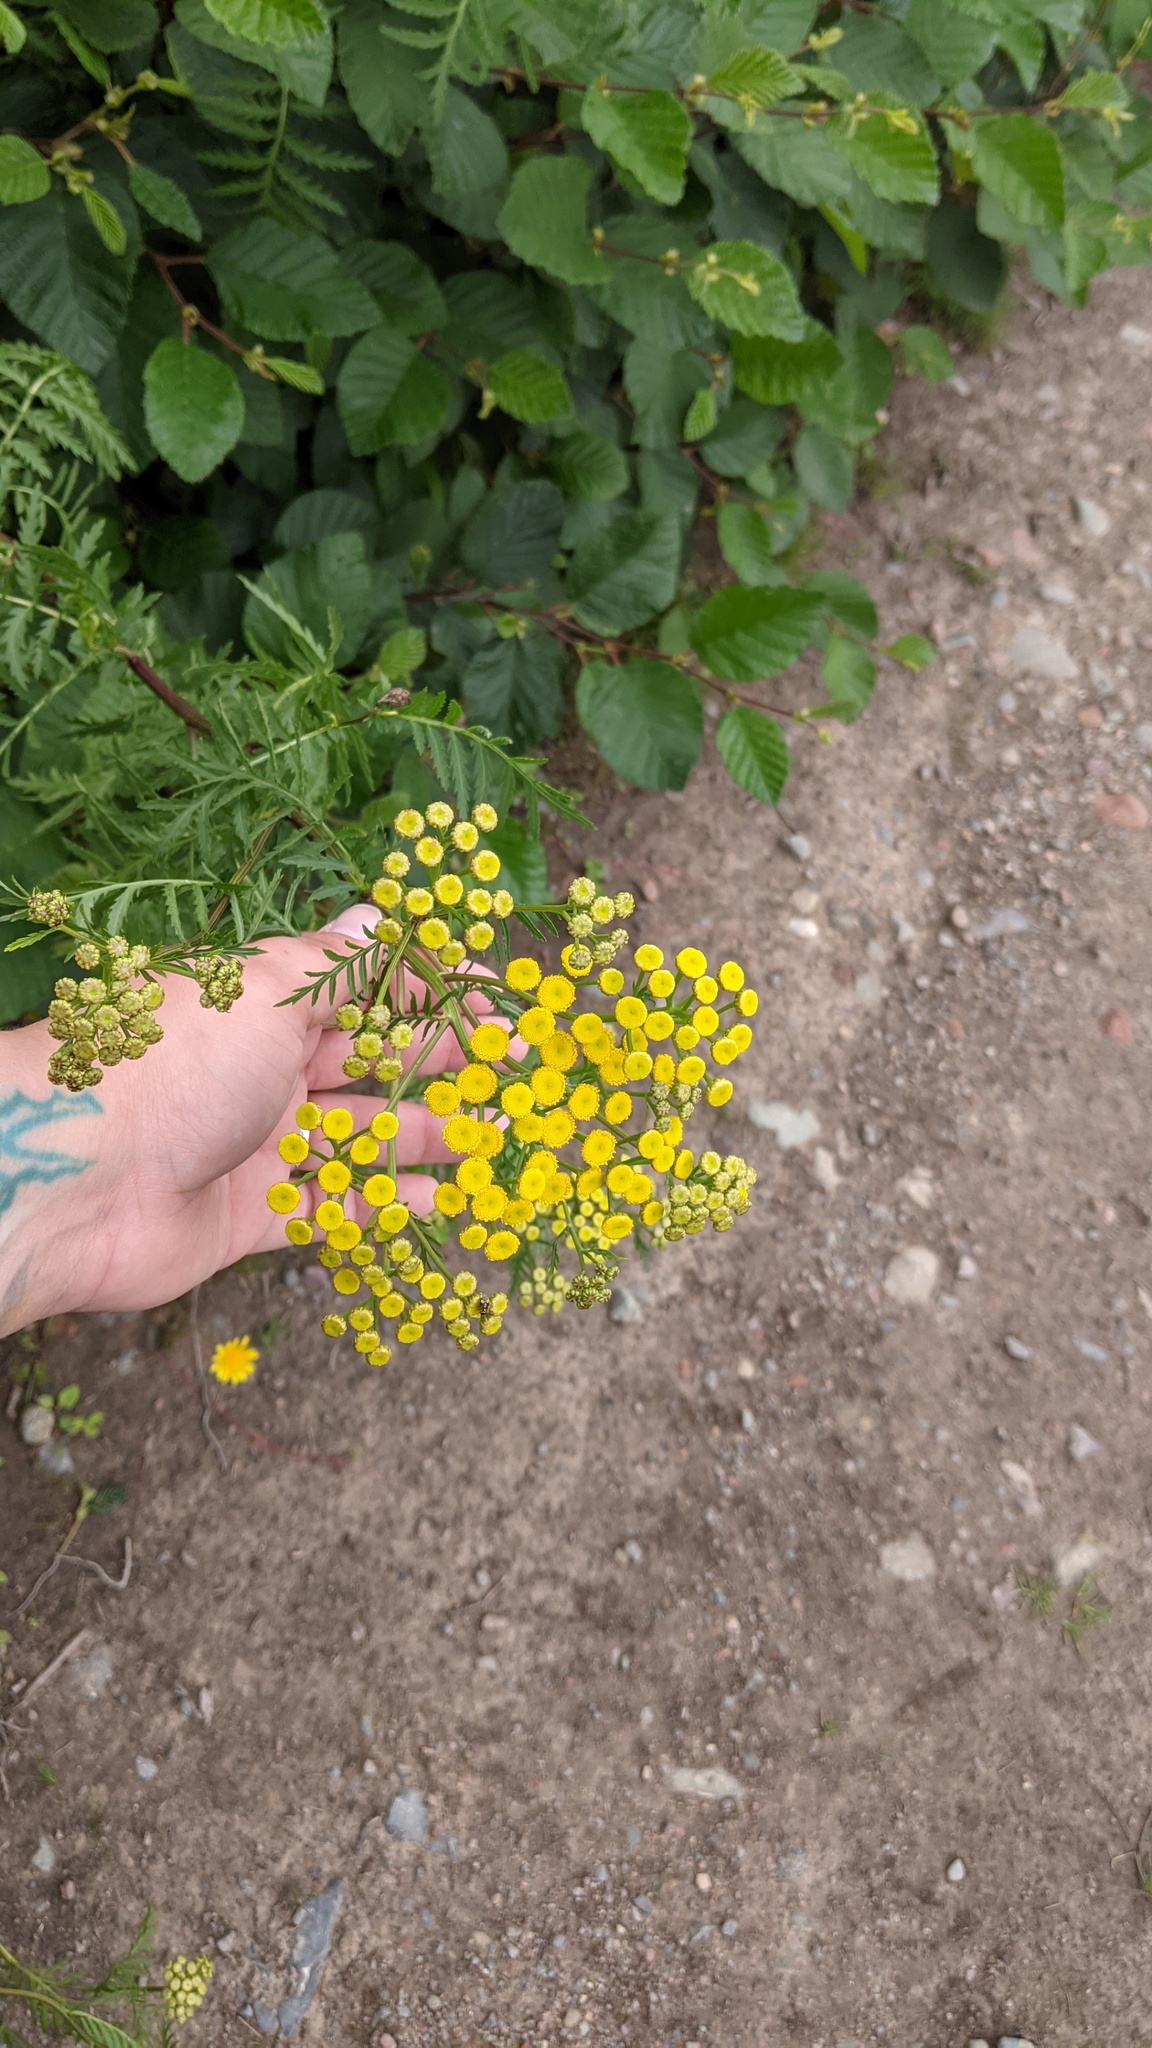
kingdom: Plantae
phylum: Tracheophyta
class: Magnoliopsida
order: Asterales
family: Asteraceae
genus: Tanacetum
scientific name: Tanacetum vulgare
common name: Common tansy
